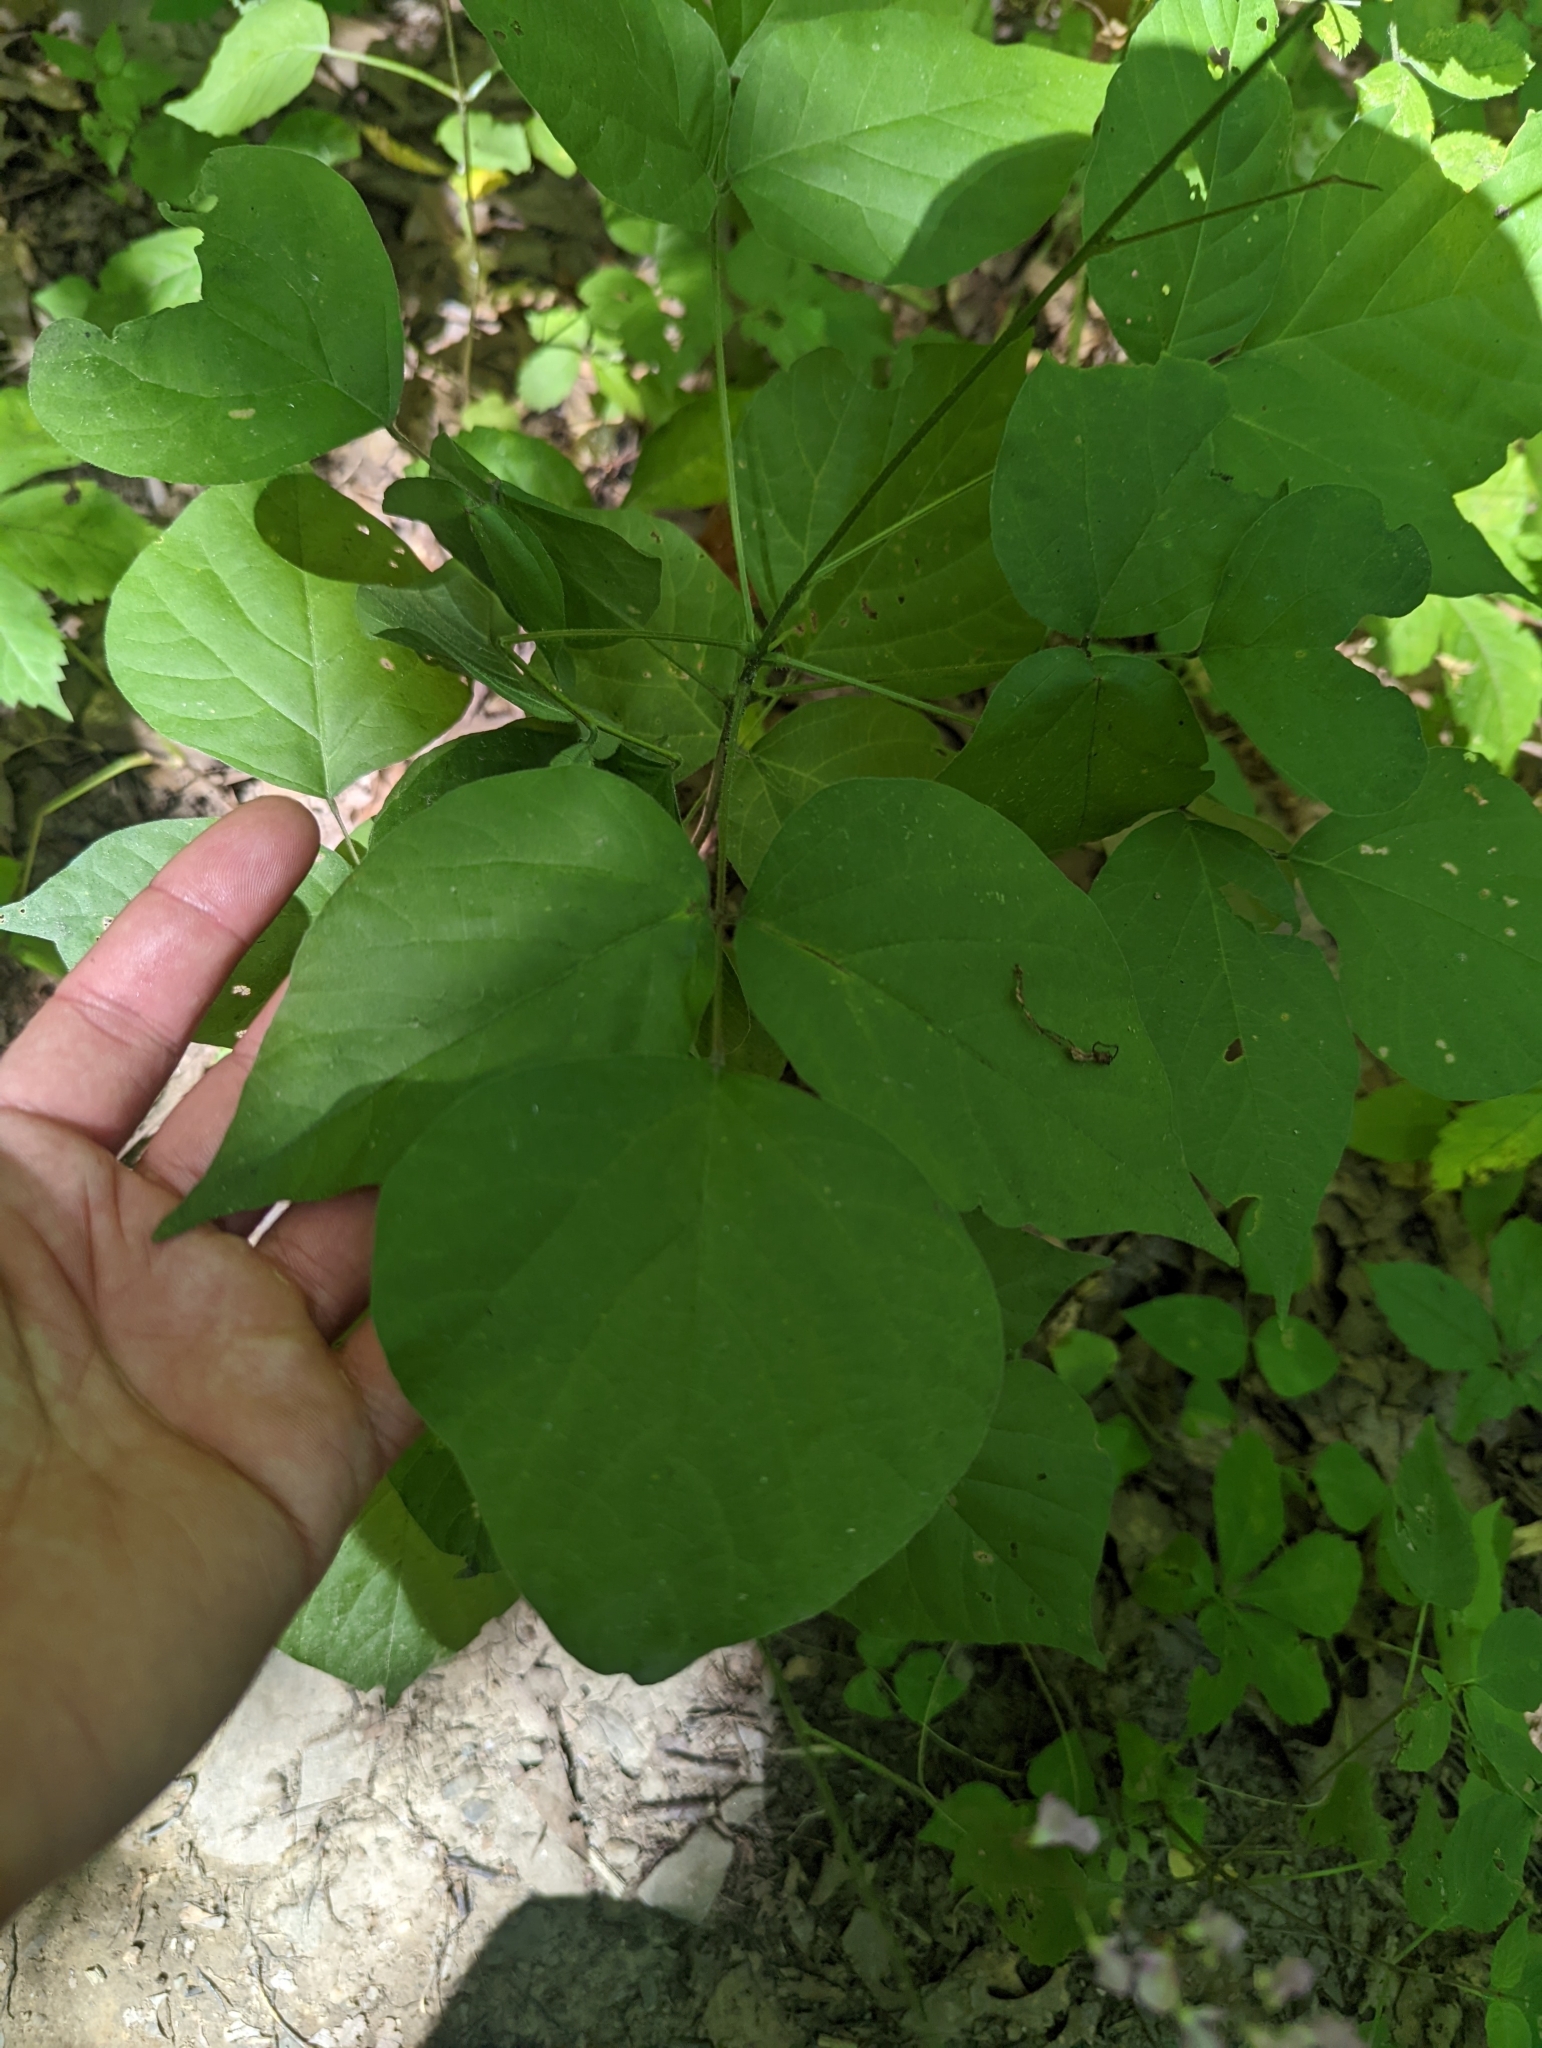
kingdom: Plantae
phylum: Tracheophyta
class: Magnoliopsida
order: Fabales
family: Fabaceae
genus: Hylodesmum
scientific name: Hylodesmum glutinosum
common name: Clustered-leaved tick-trefoil
